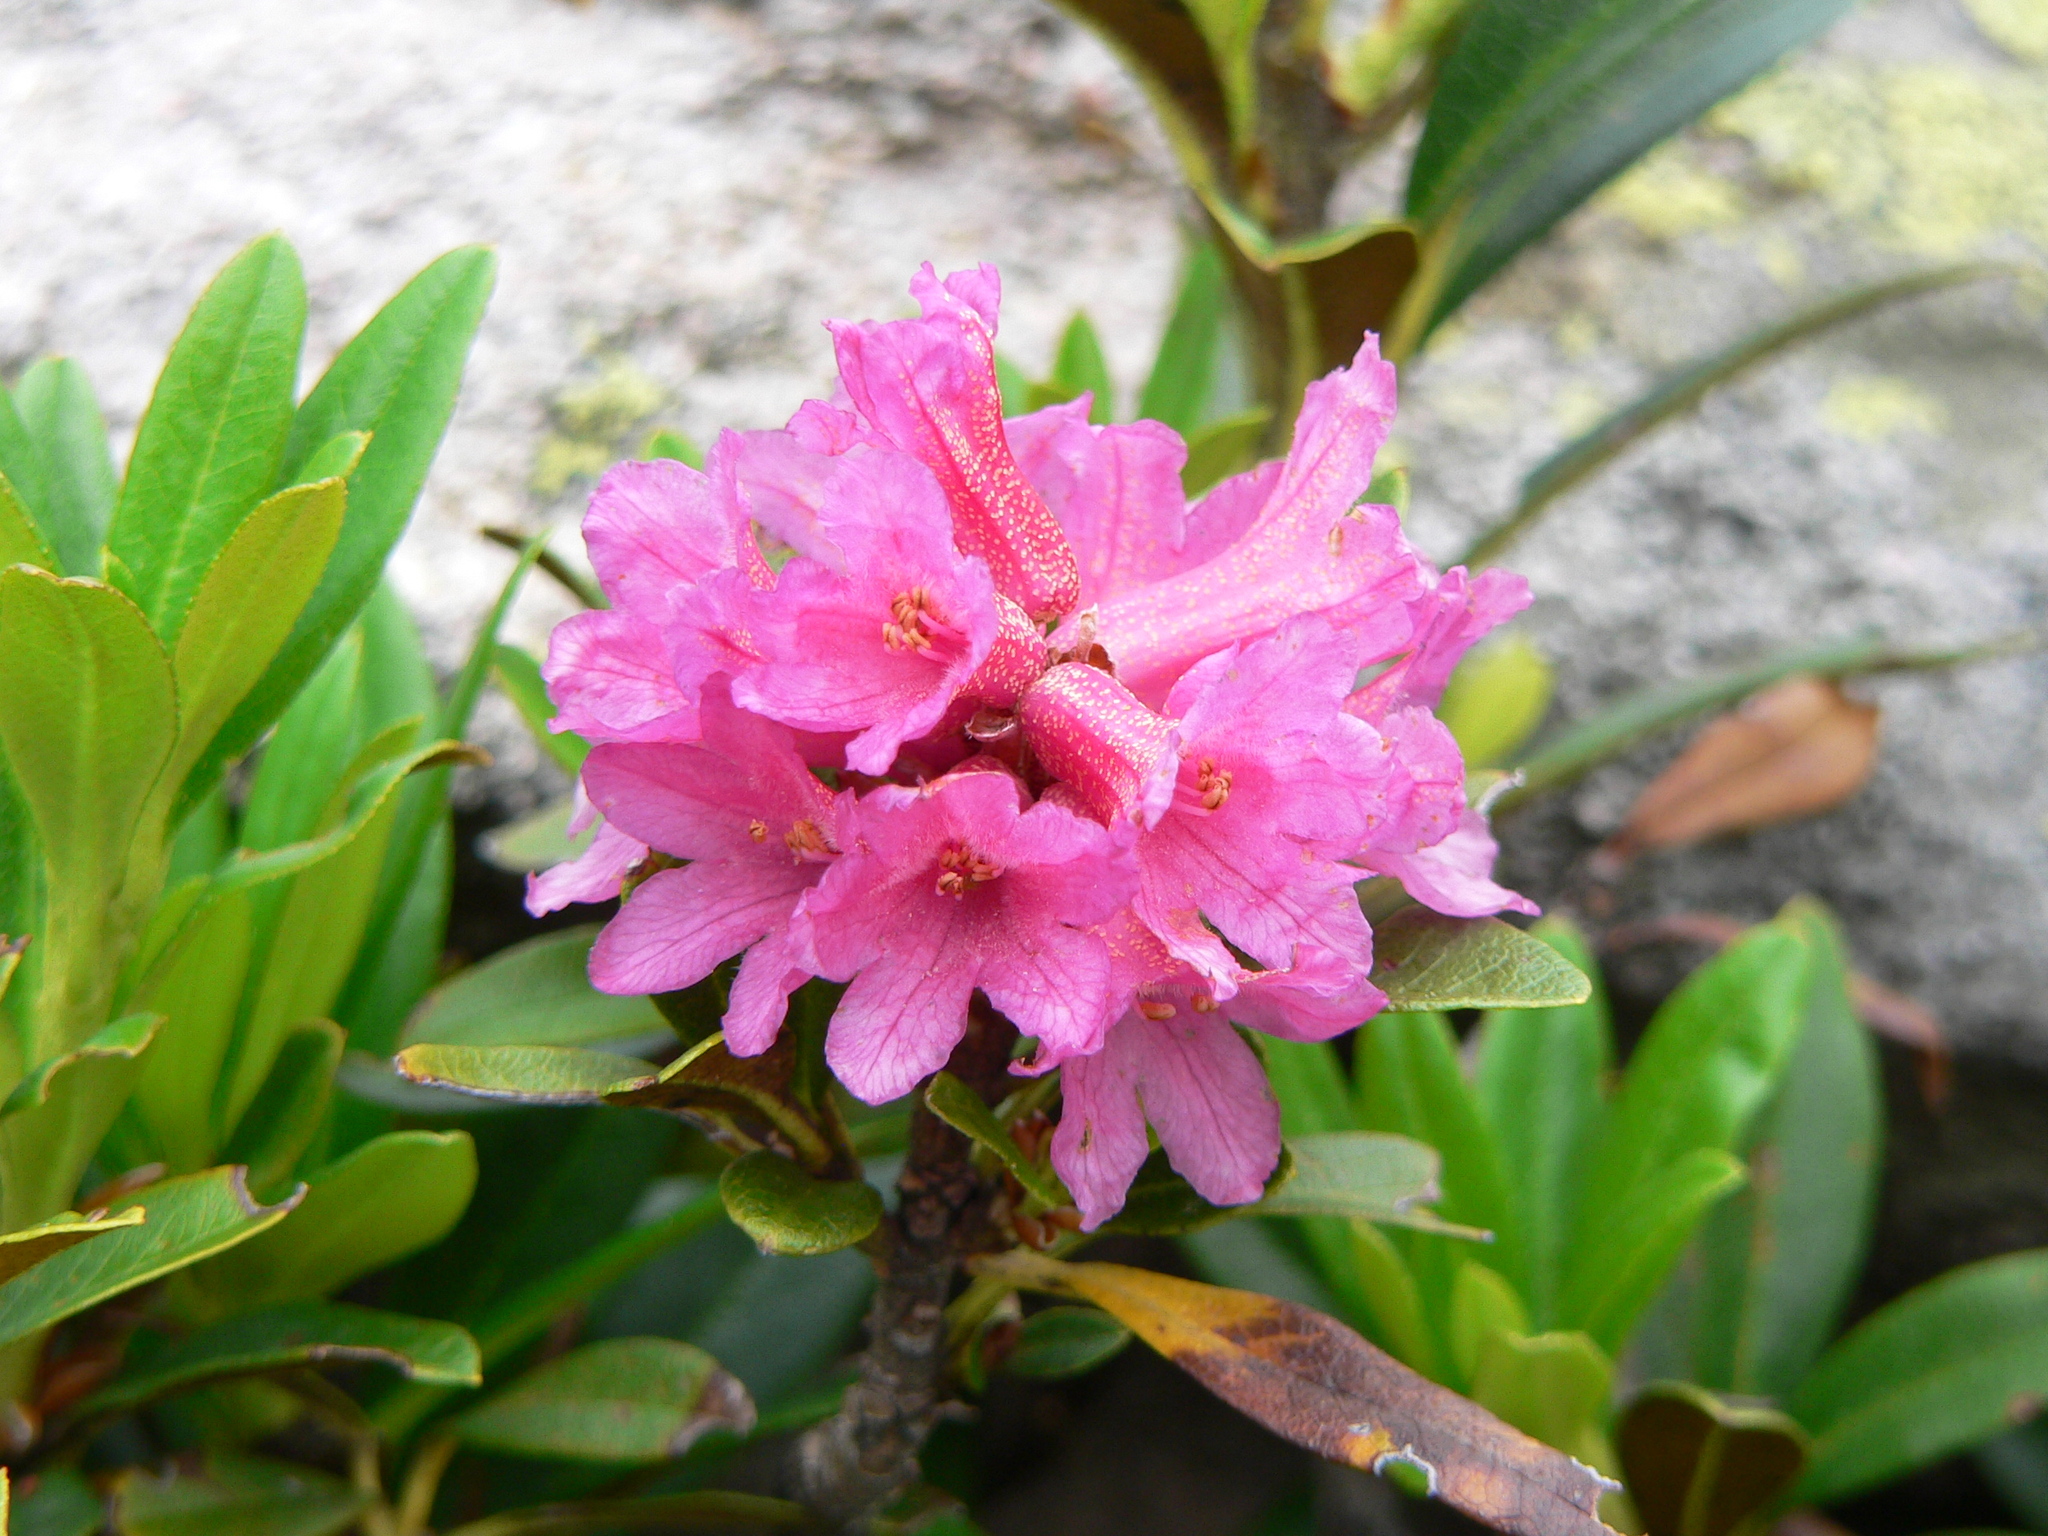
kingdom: Plantae
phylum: Tracheophyta
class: Magnoliopsida
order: Ericales
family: Ericaceae
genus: Rhododendron
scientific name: Rhododendron ferrugineum
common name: Alpenrose
